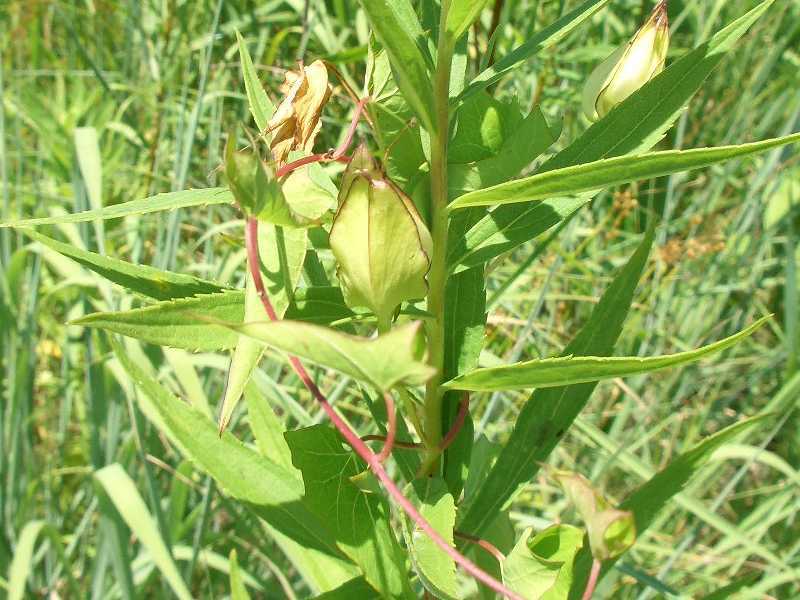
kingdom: Plantae
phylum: Tracheophyta
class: Magnoliopsida
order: Solanales
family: Convolvulaceae
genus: Calystegia
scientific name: Calystegia sepium
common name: Hedge bindweed
